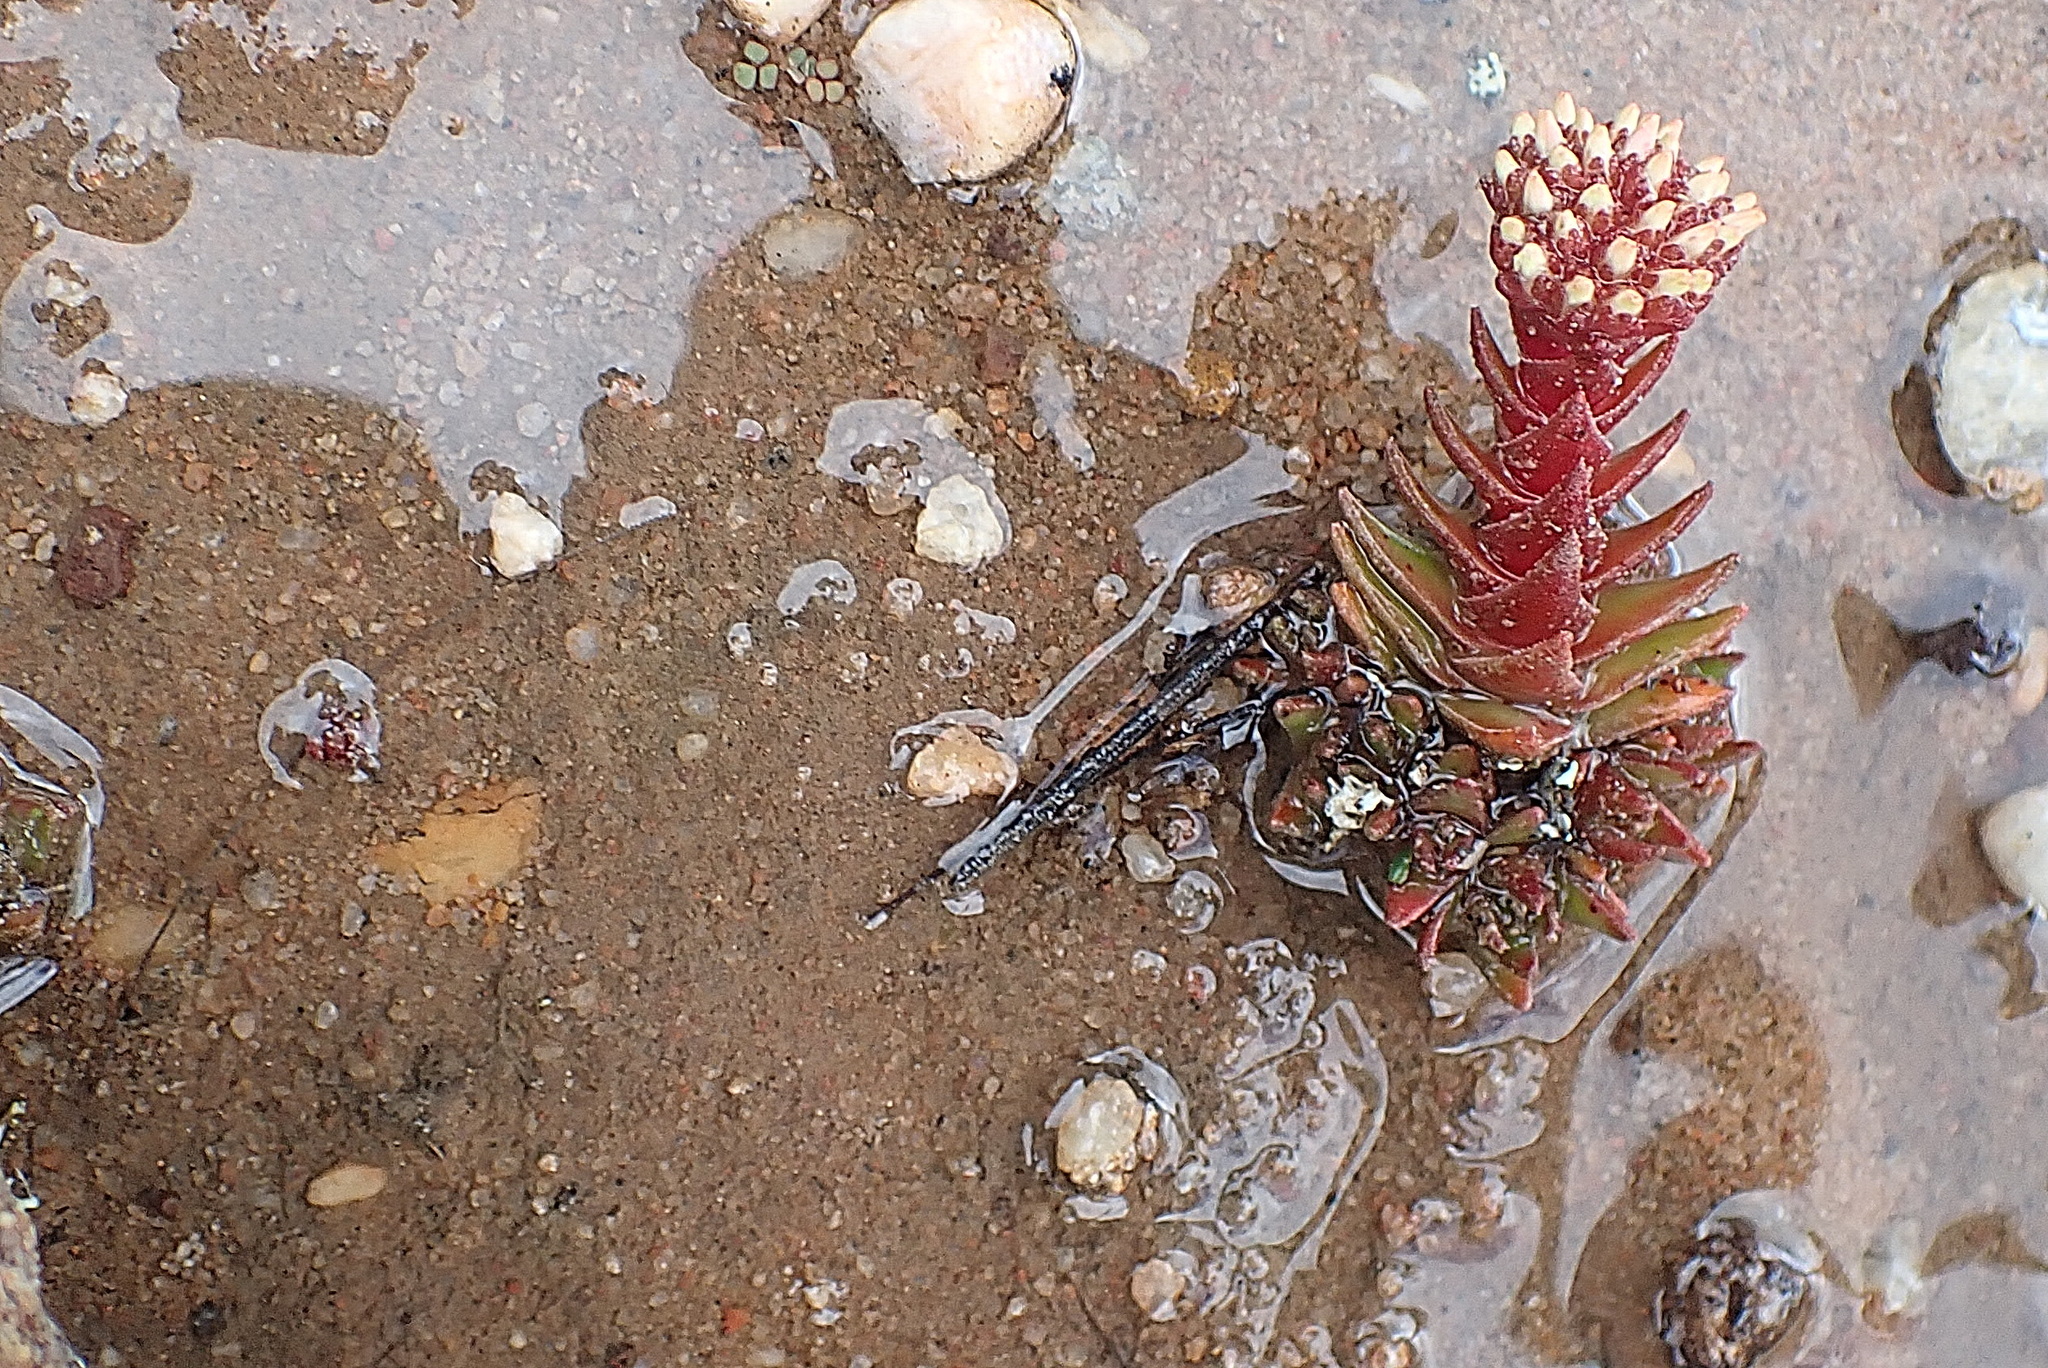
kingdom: Plantae
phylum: Tracheophyta
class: Magnoliopsida
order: Saxifragales
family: Crassulaceae
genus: Crassula
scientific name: Crassula alpestris
